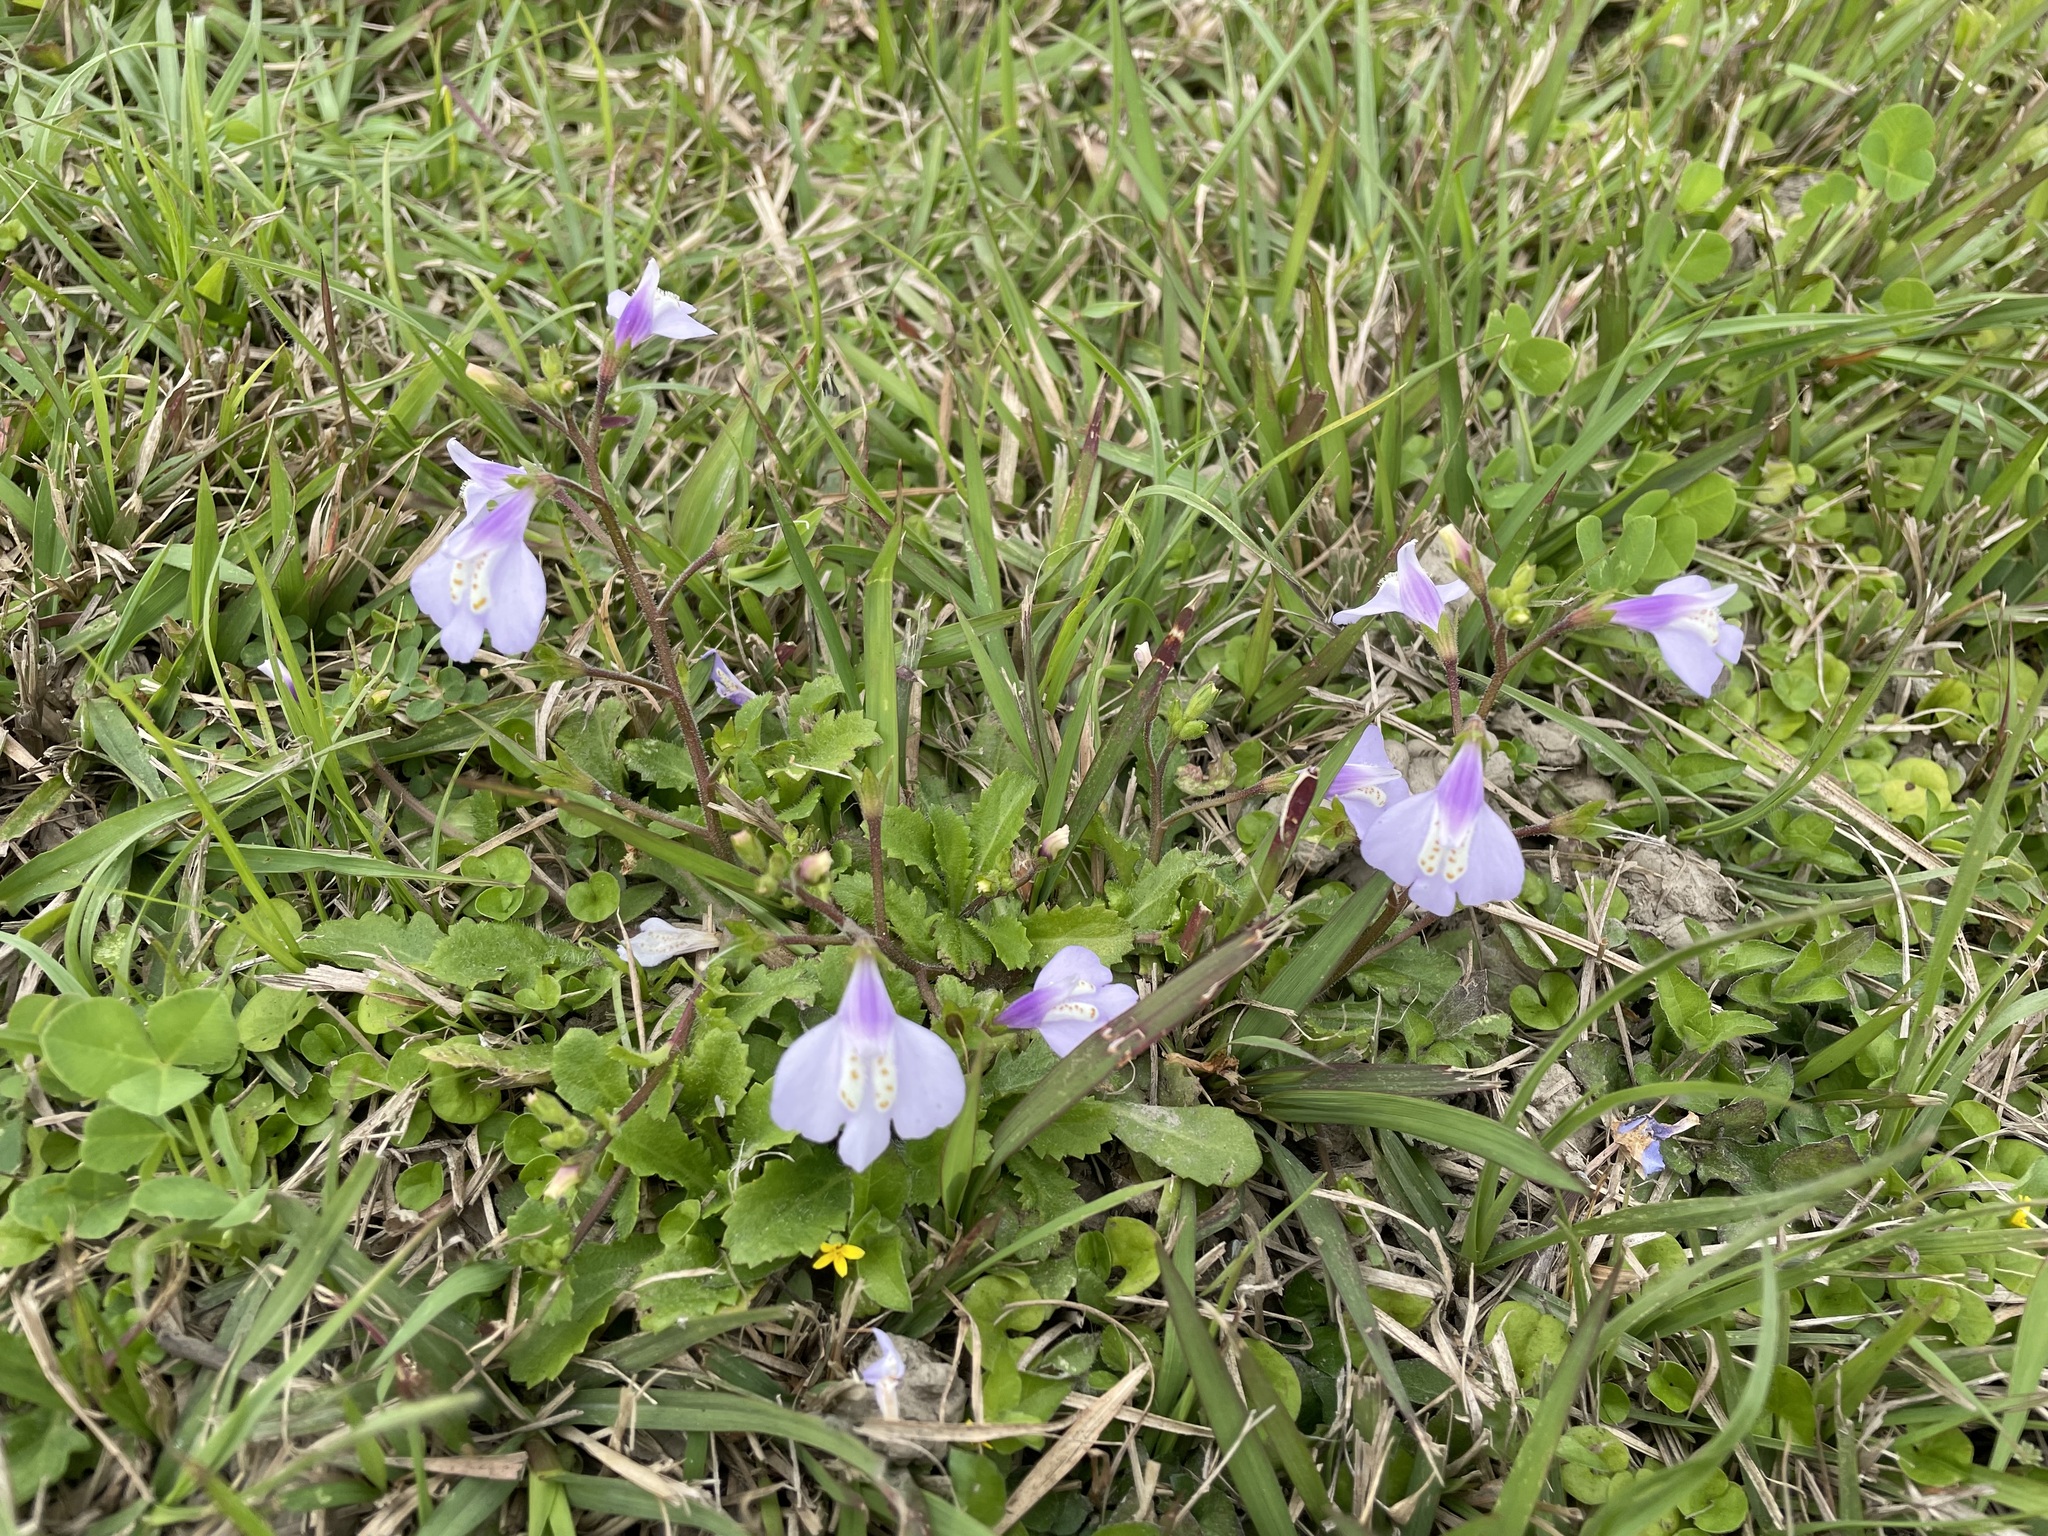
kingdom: Plantae
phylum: Tracheophyta
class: Magnoliopsida
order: Lamiales
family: Mazaceae
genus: Mazus
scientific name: Mazus fauriei
